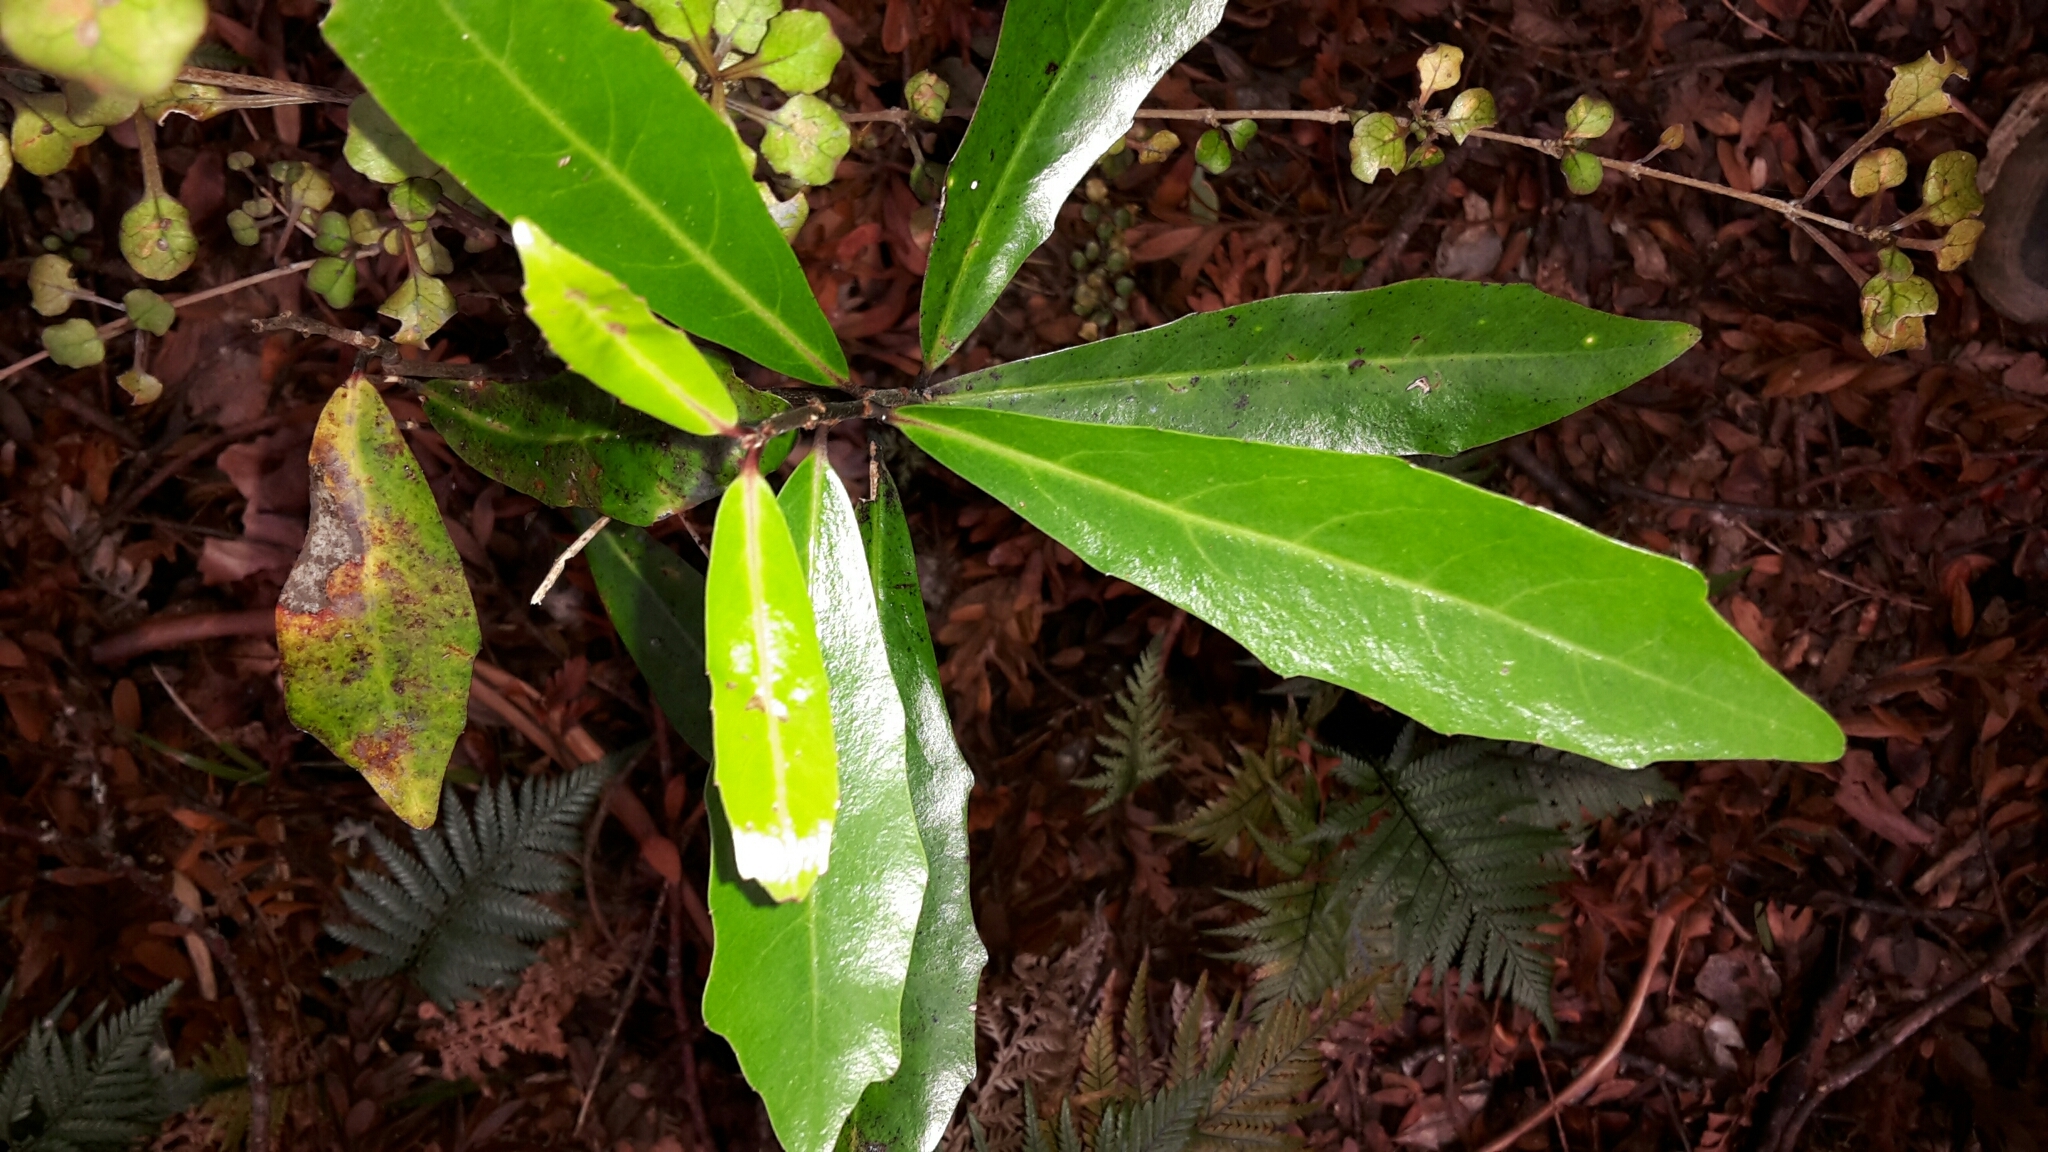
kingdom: Plantae
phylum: Tracheophyta
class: Magnoliopsida
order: Asterales
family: Alseuosmiaceae
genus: Alseuosmia
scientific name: Alseuosmia quercifolia
